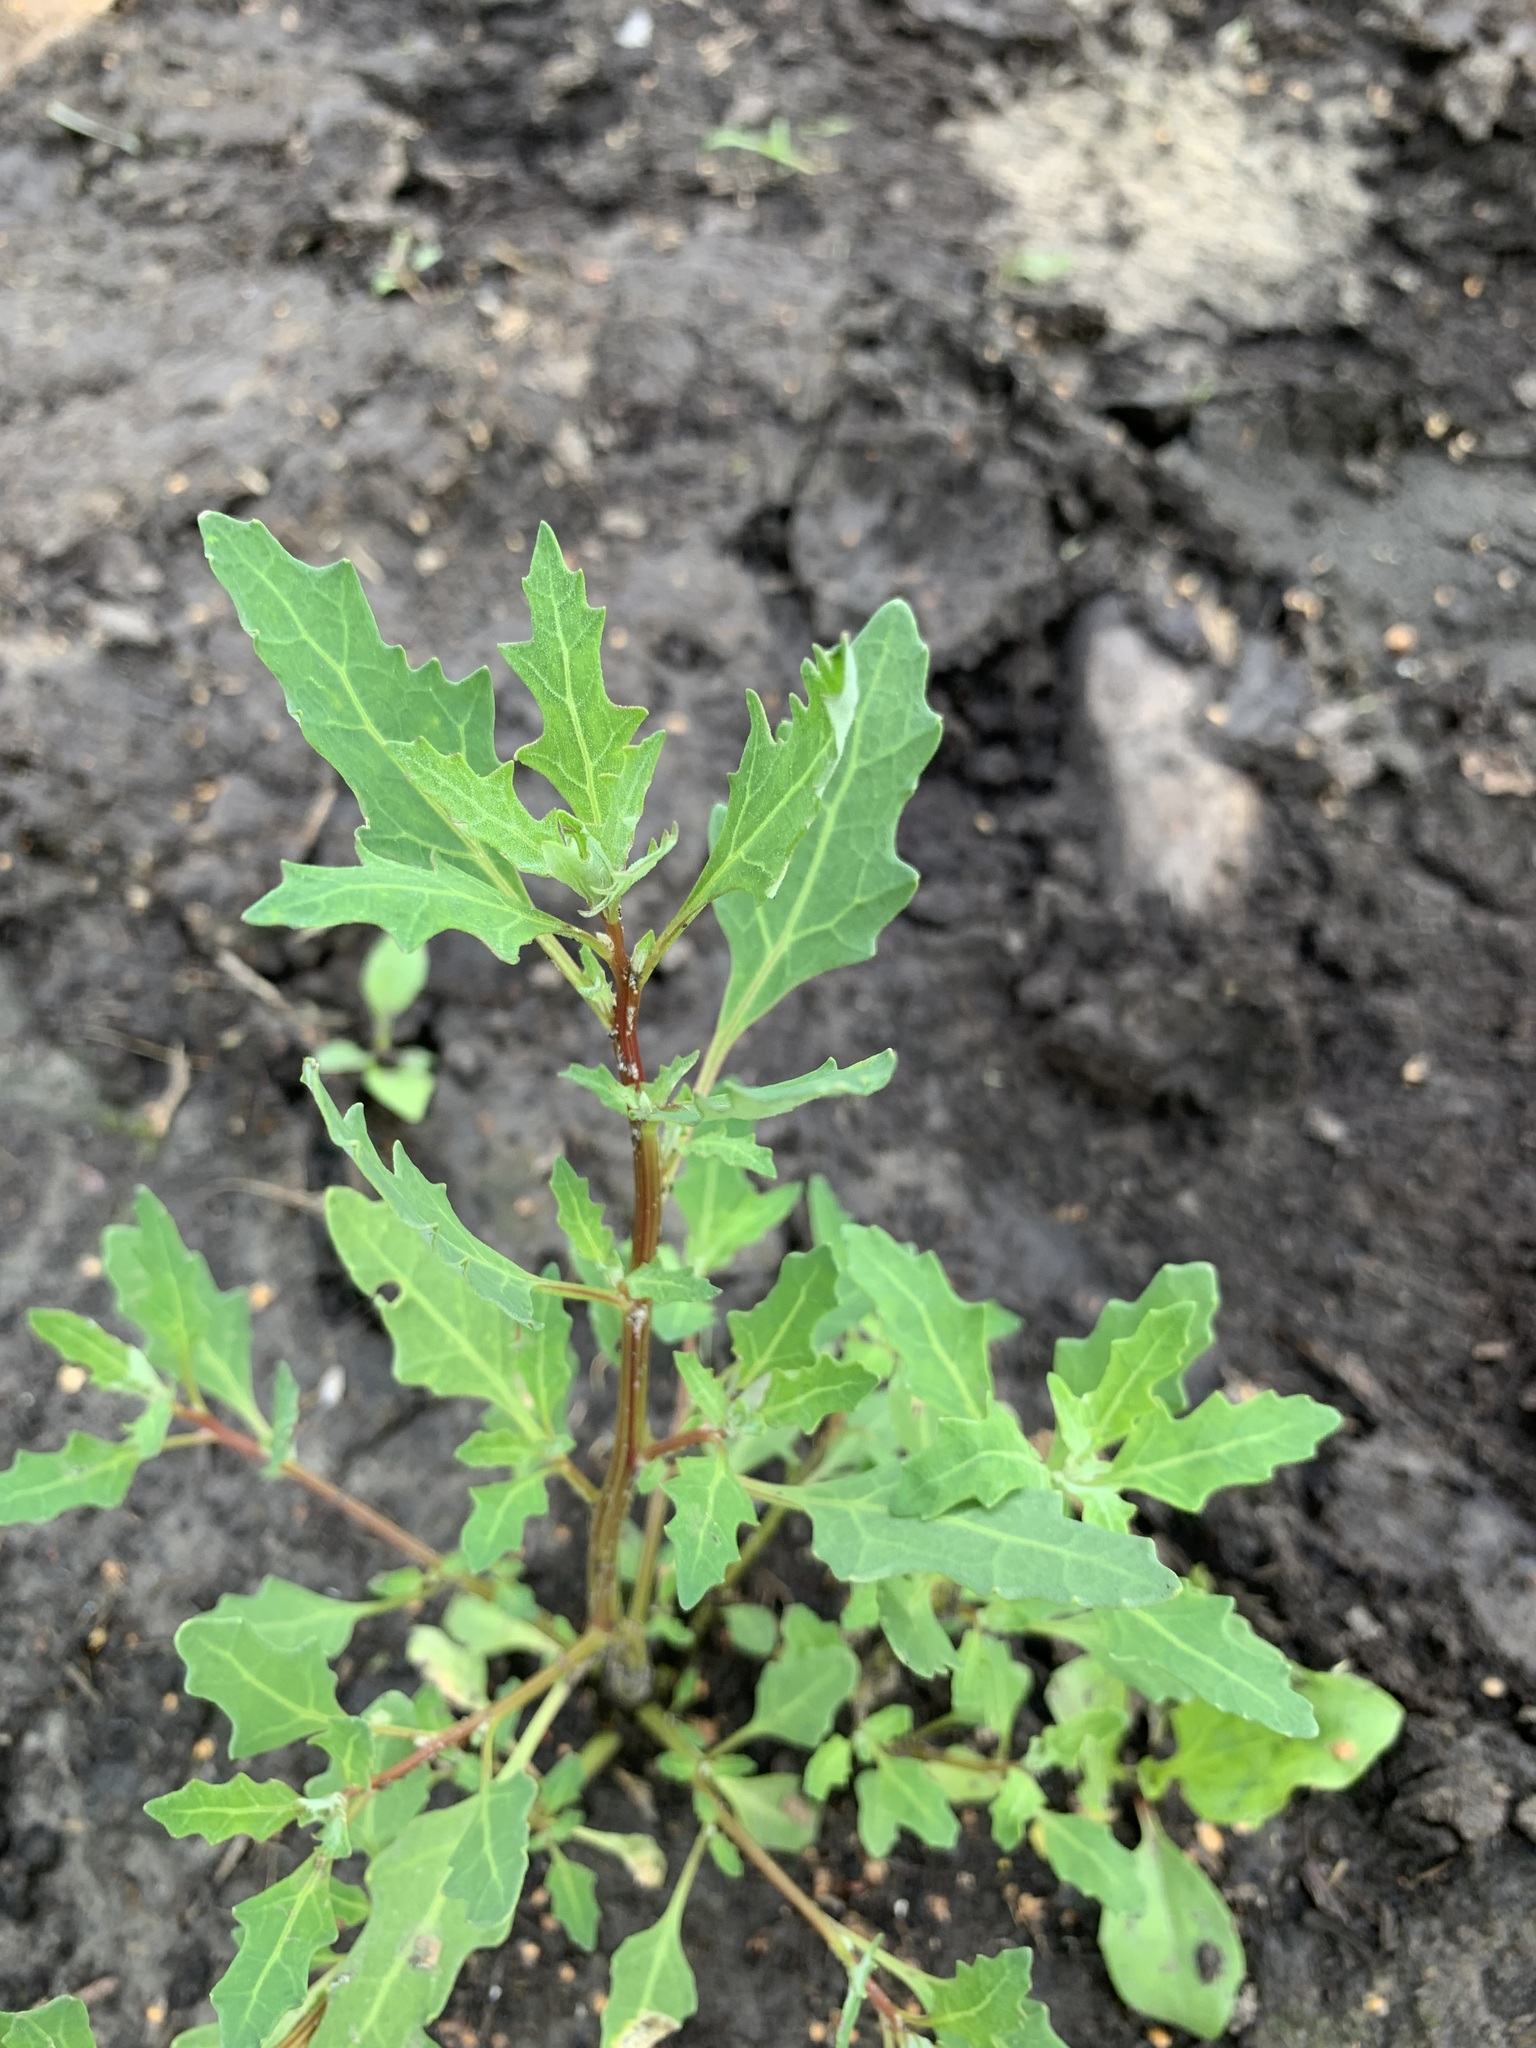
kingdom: Plantae
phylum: Tracheophyta
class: Magnoliopsida
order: Caryophyllales
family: Amaranthaceae
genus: Oxybasis
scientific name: Oxybasis glauca
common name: Glaucous goosefoot
